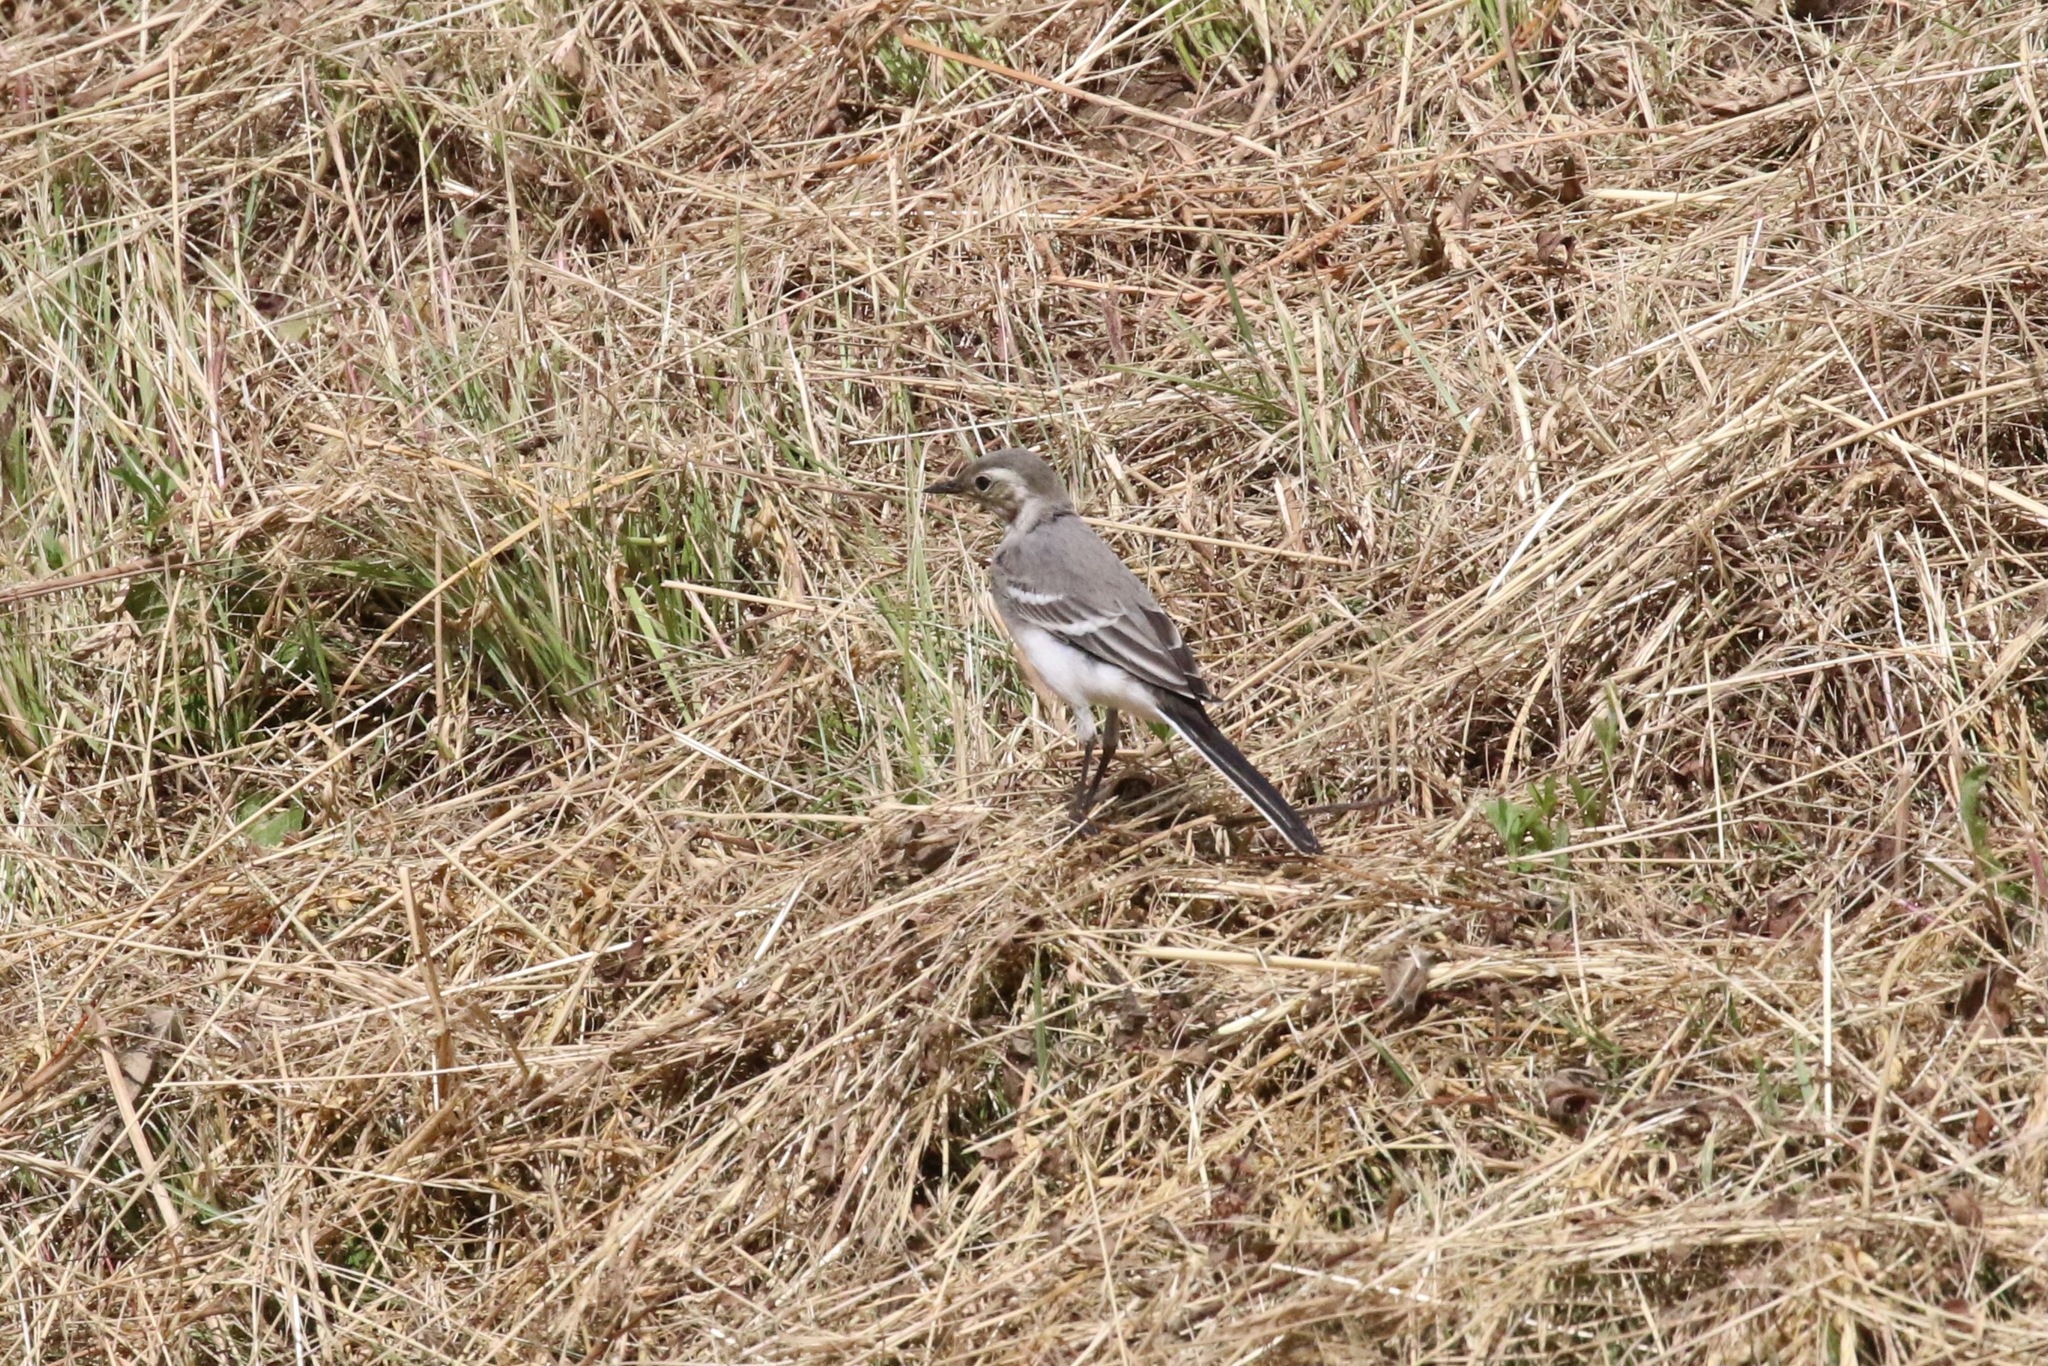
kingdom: Animalia
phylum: Chordata
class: Aves
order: Passeriformes
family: Motacillidae
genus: Motacilla
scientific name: Motacilla alba
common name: White wagtail
